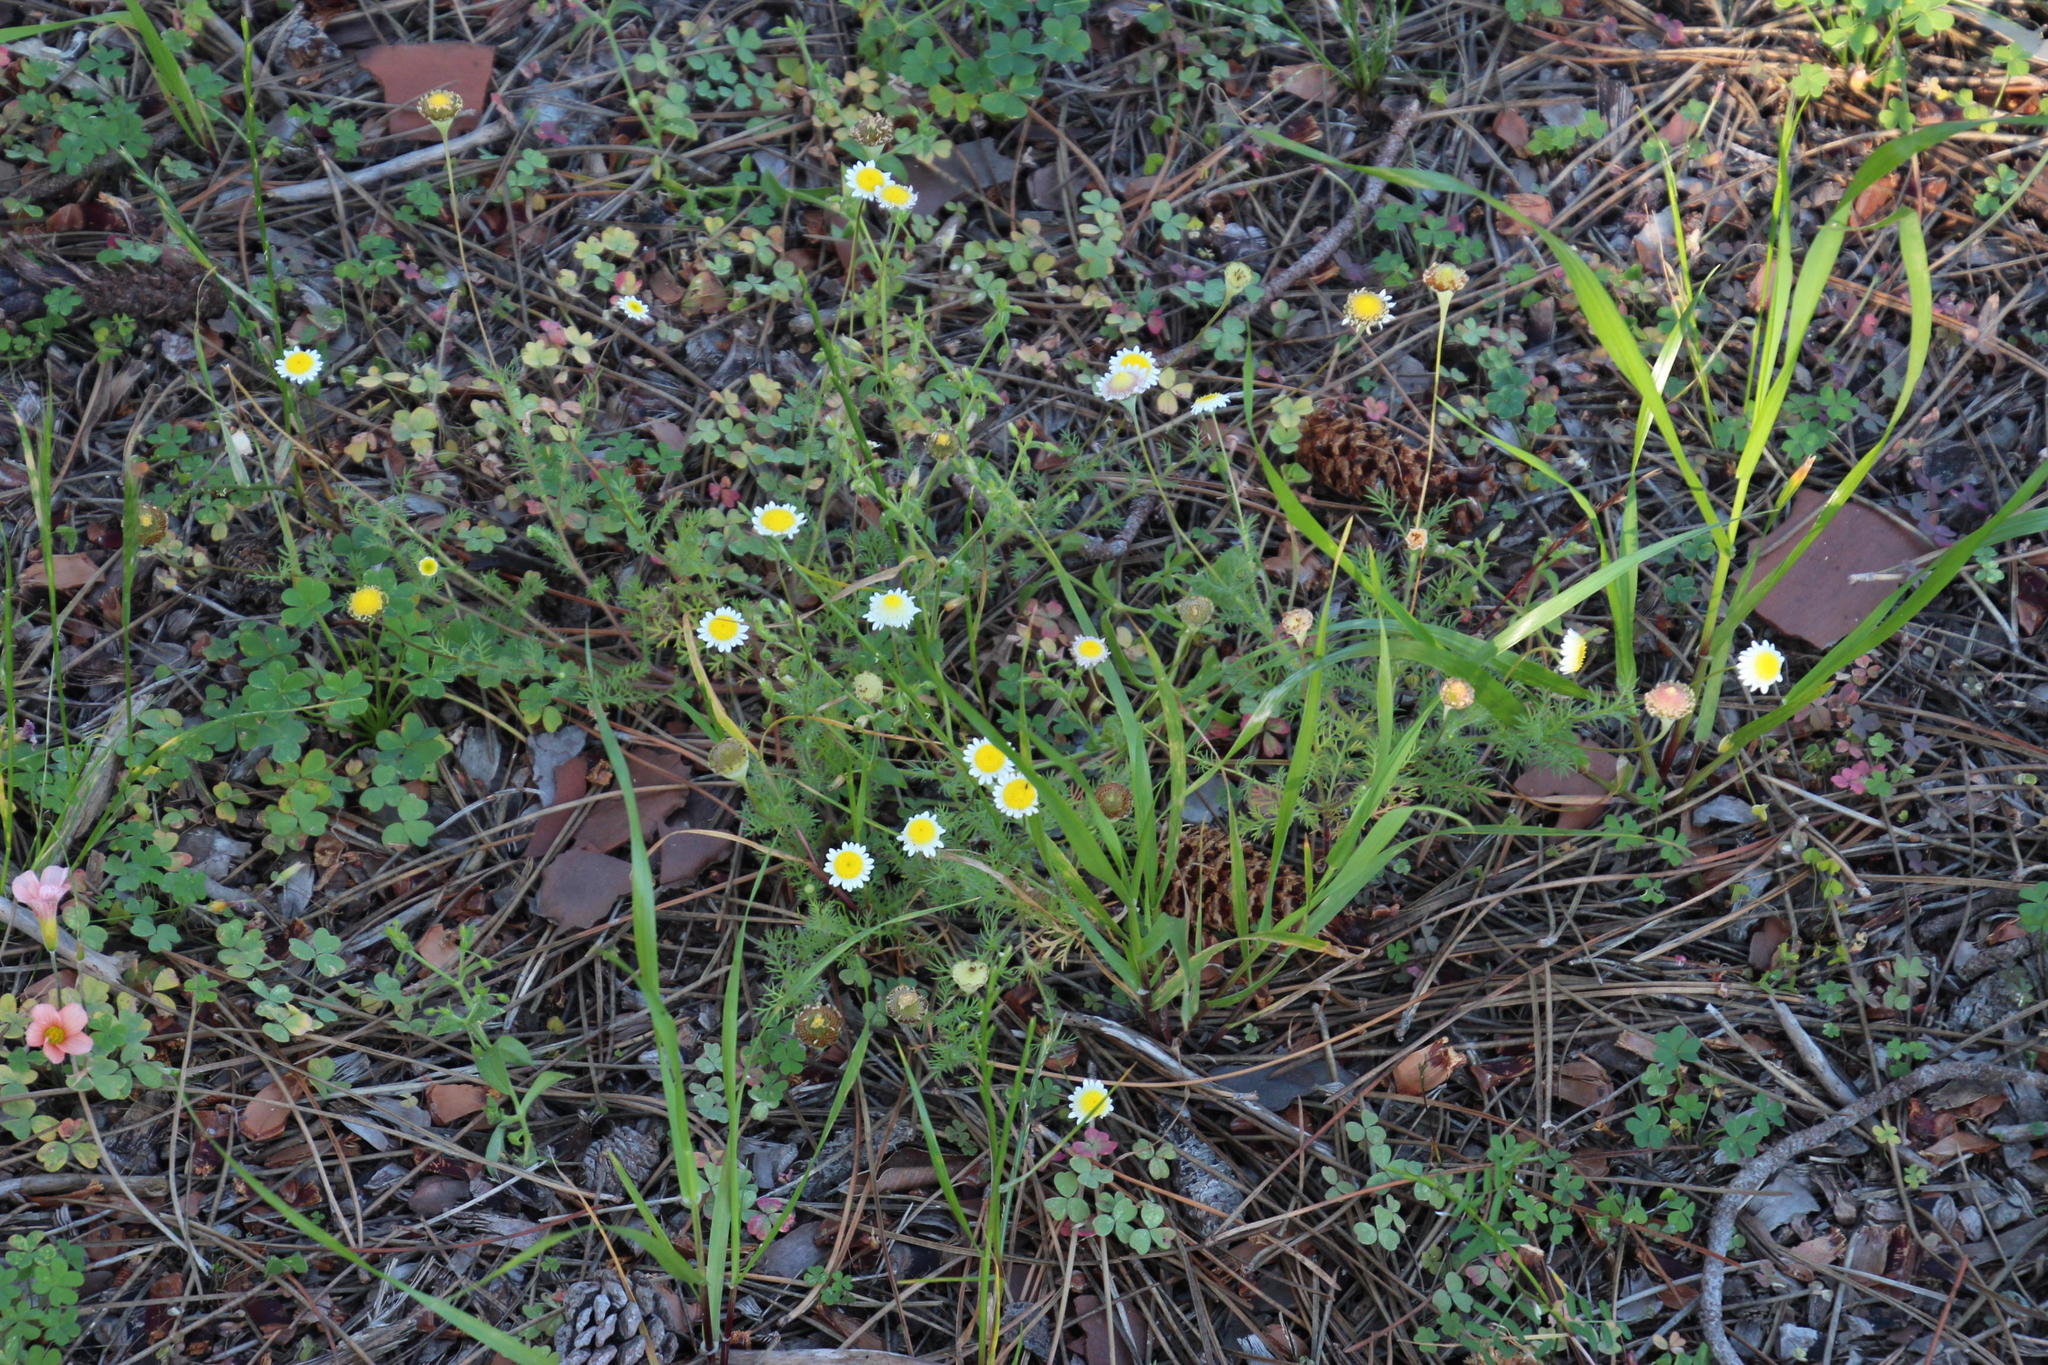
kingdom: Plantae
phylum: Tracheophyta
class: Magnoliopsida
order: Asterales
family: Asteraceae
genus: Cotula
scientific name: Cotula turbinata
